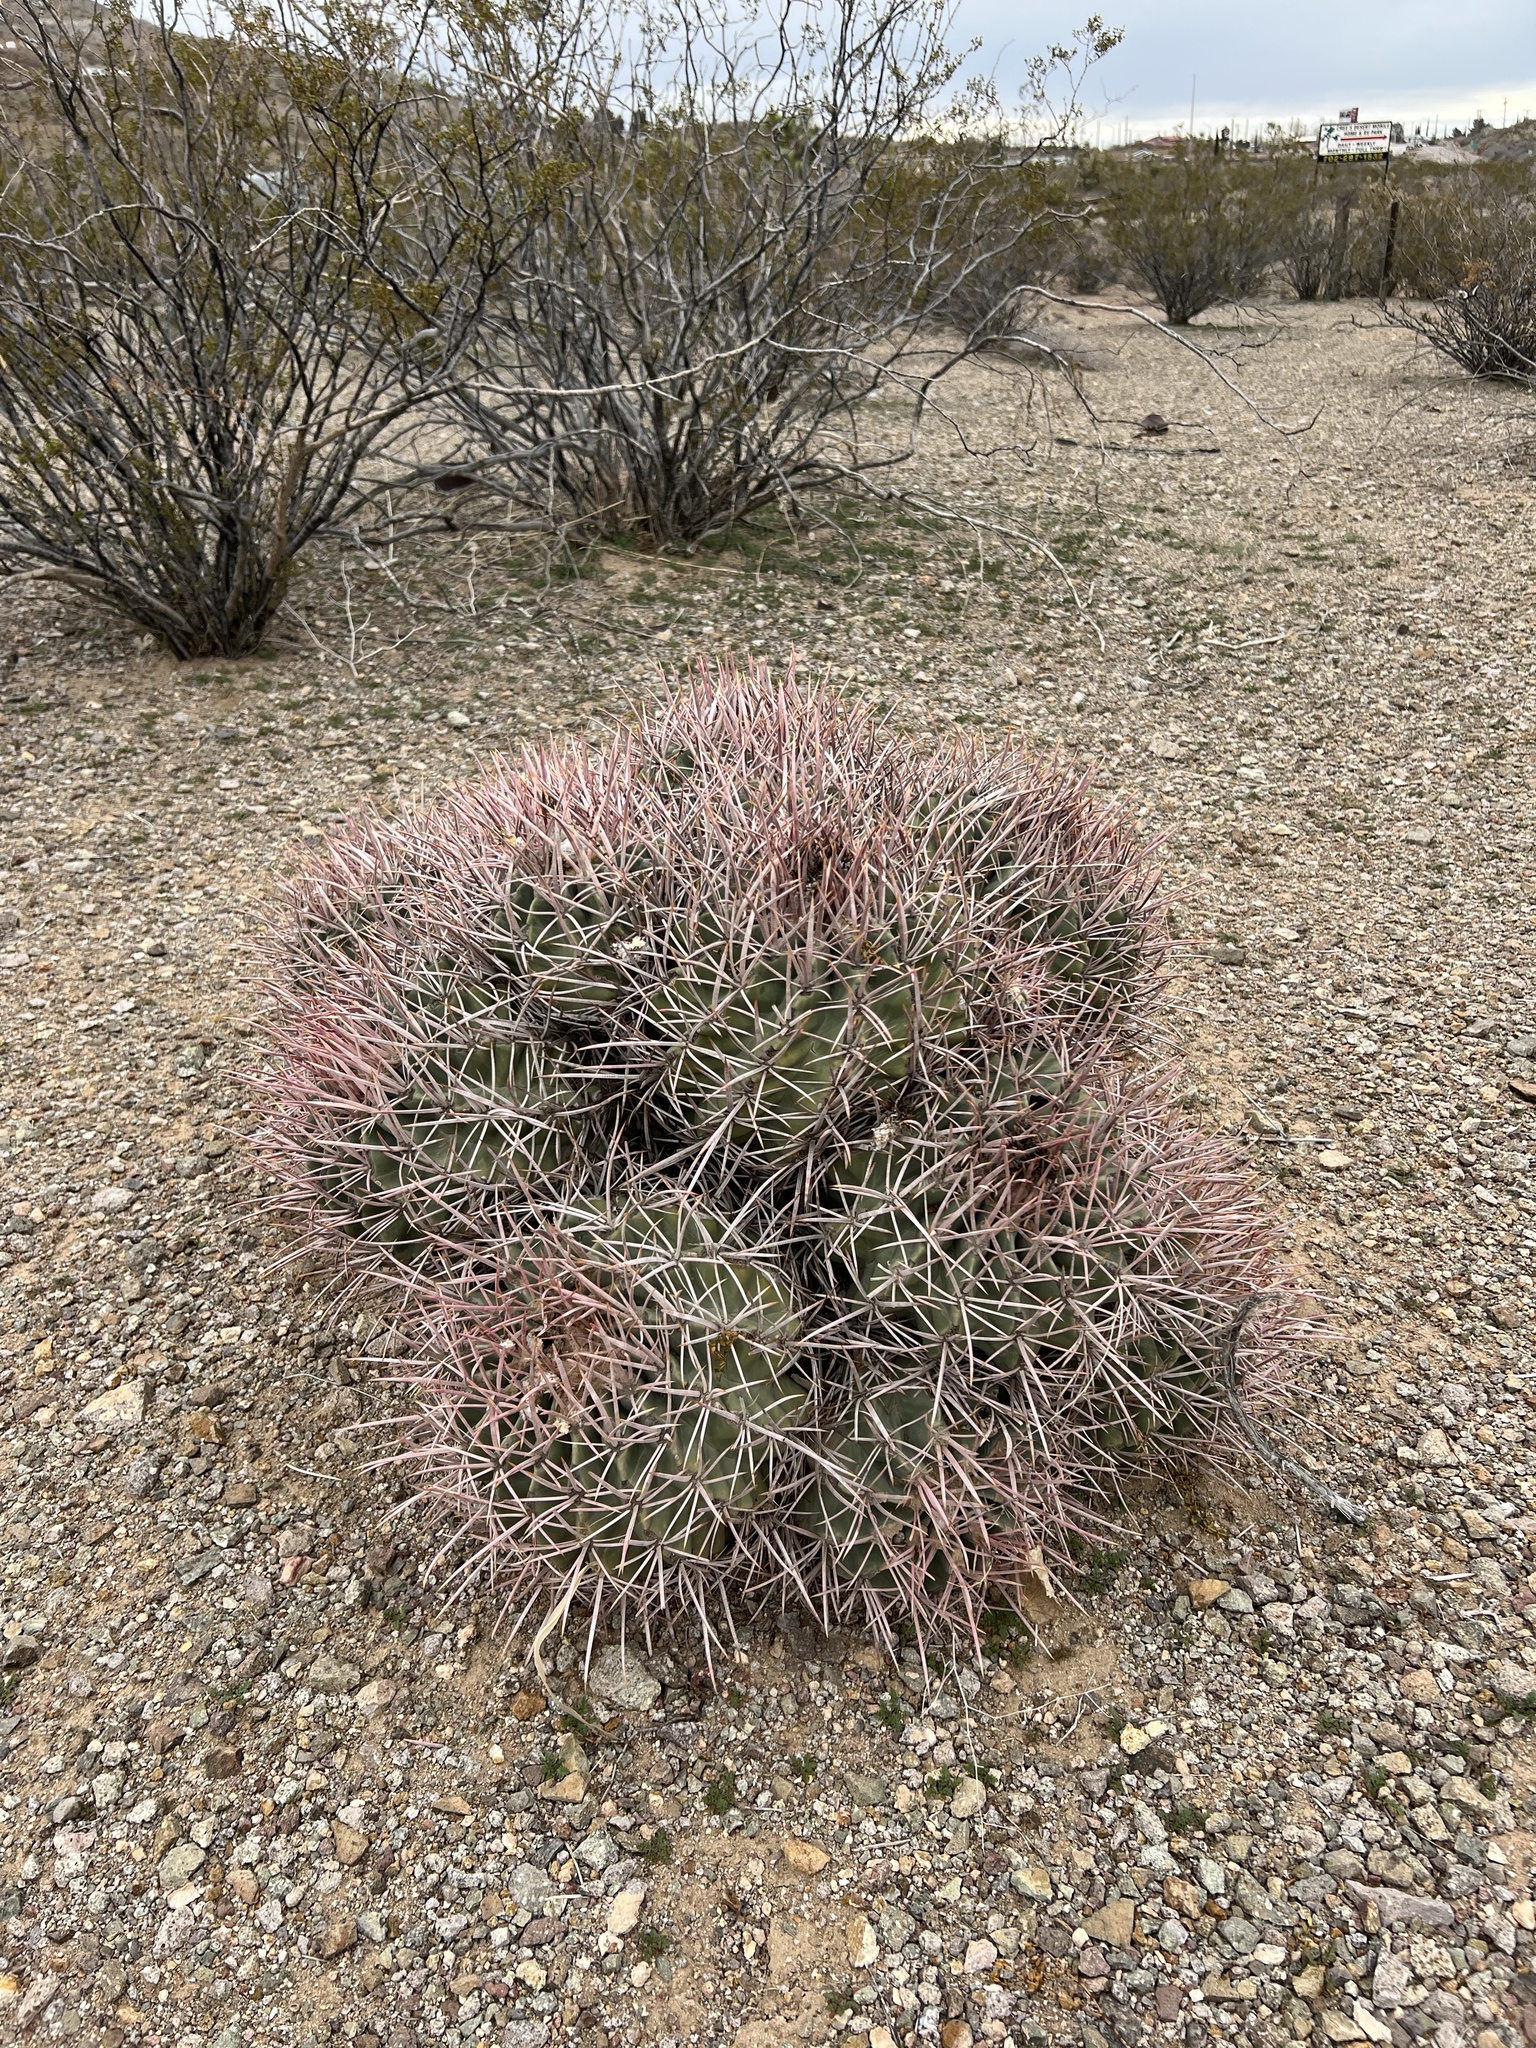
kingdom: Plantae
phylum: Tracheophyta
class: Magnoliopsida
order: Caryophyllales
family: Cactaceae
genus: Echinocactus
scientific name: Echinocactus polycephalus
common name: Cottontop cactus
